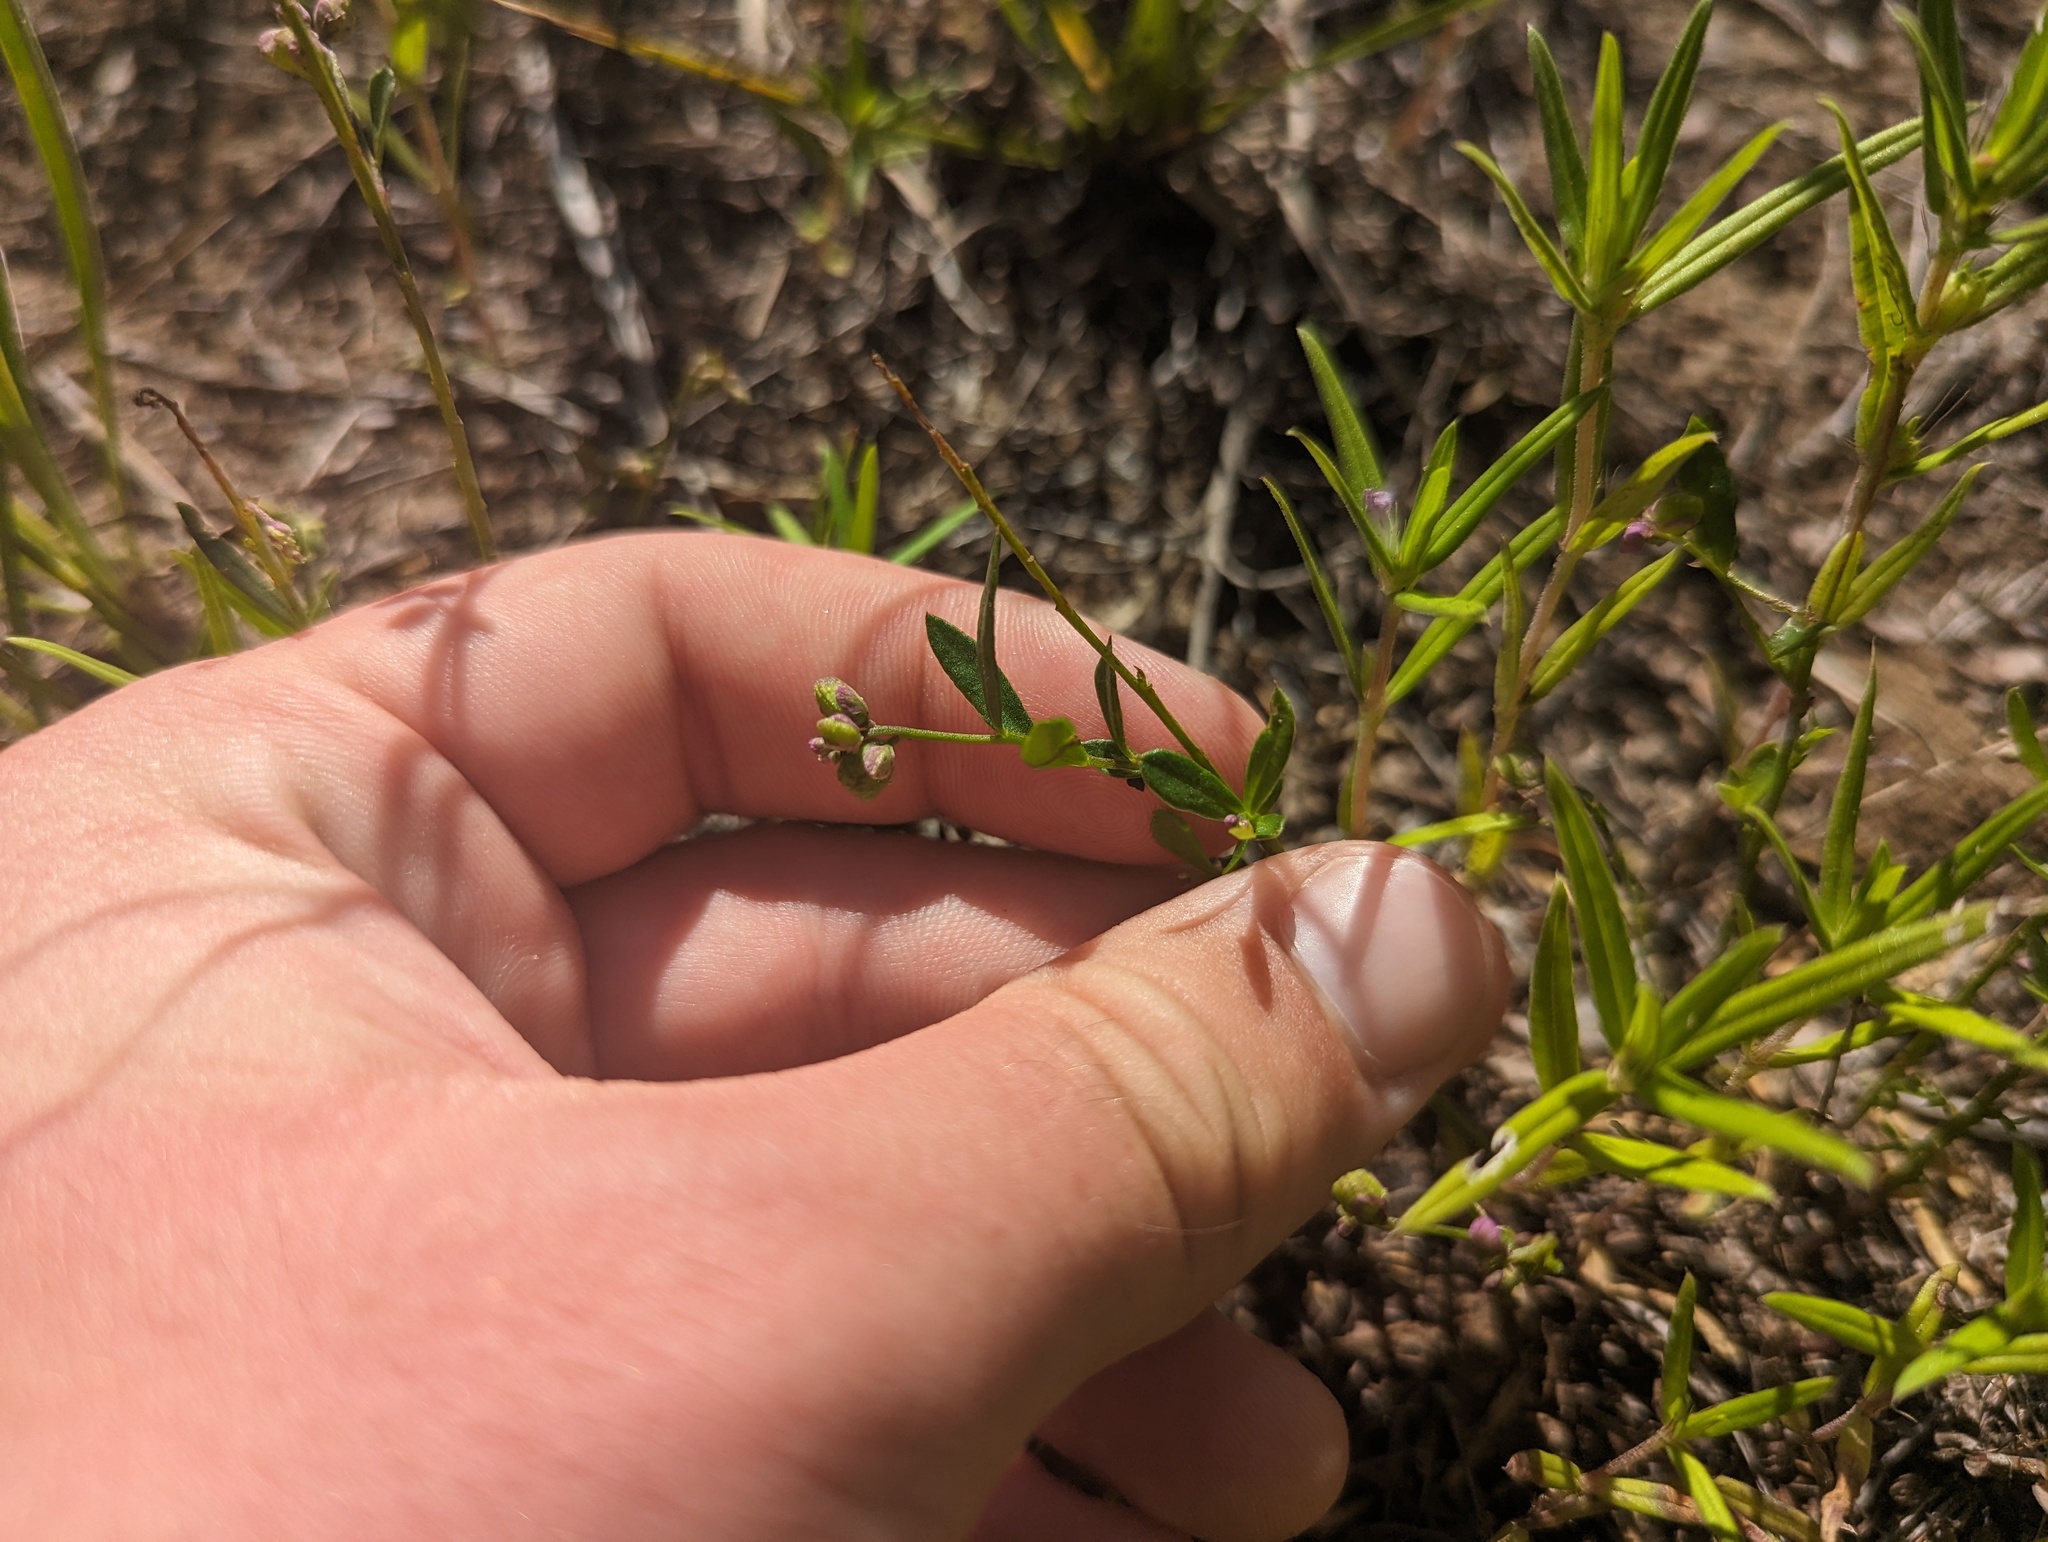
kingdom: Plantae
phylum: Tracheophyta
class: Magnoliopsida
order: Fabales
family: Polygalaceae
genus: Polygala
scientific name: Polygala polygama
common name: Bitter milkwort
